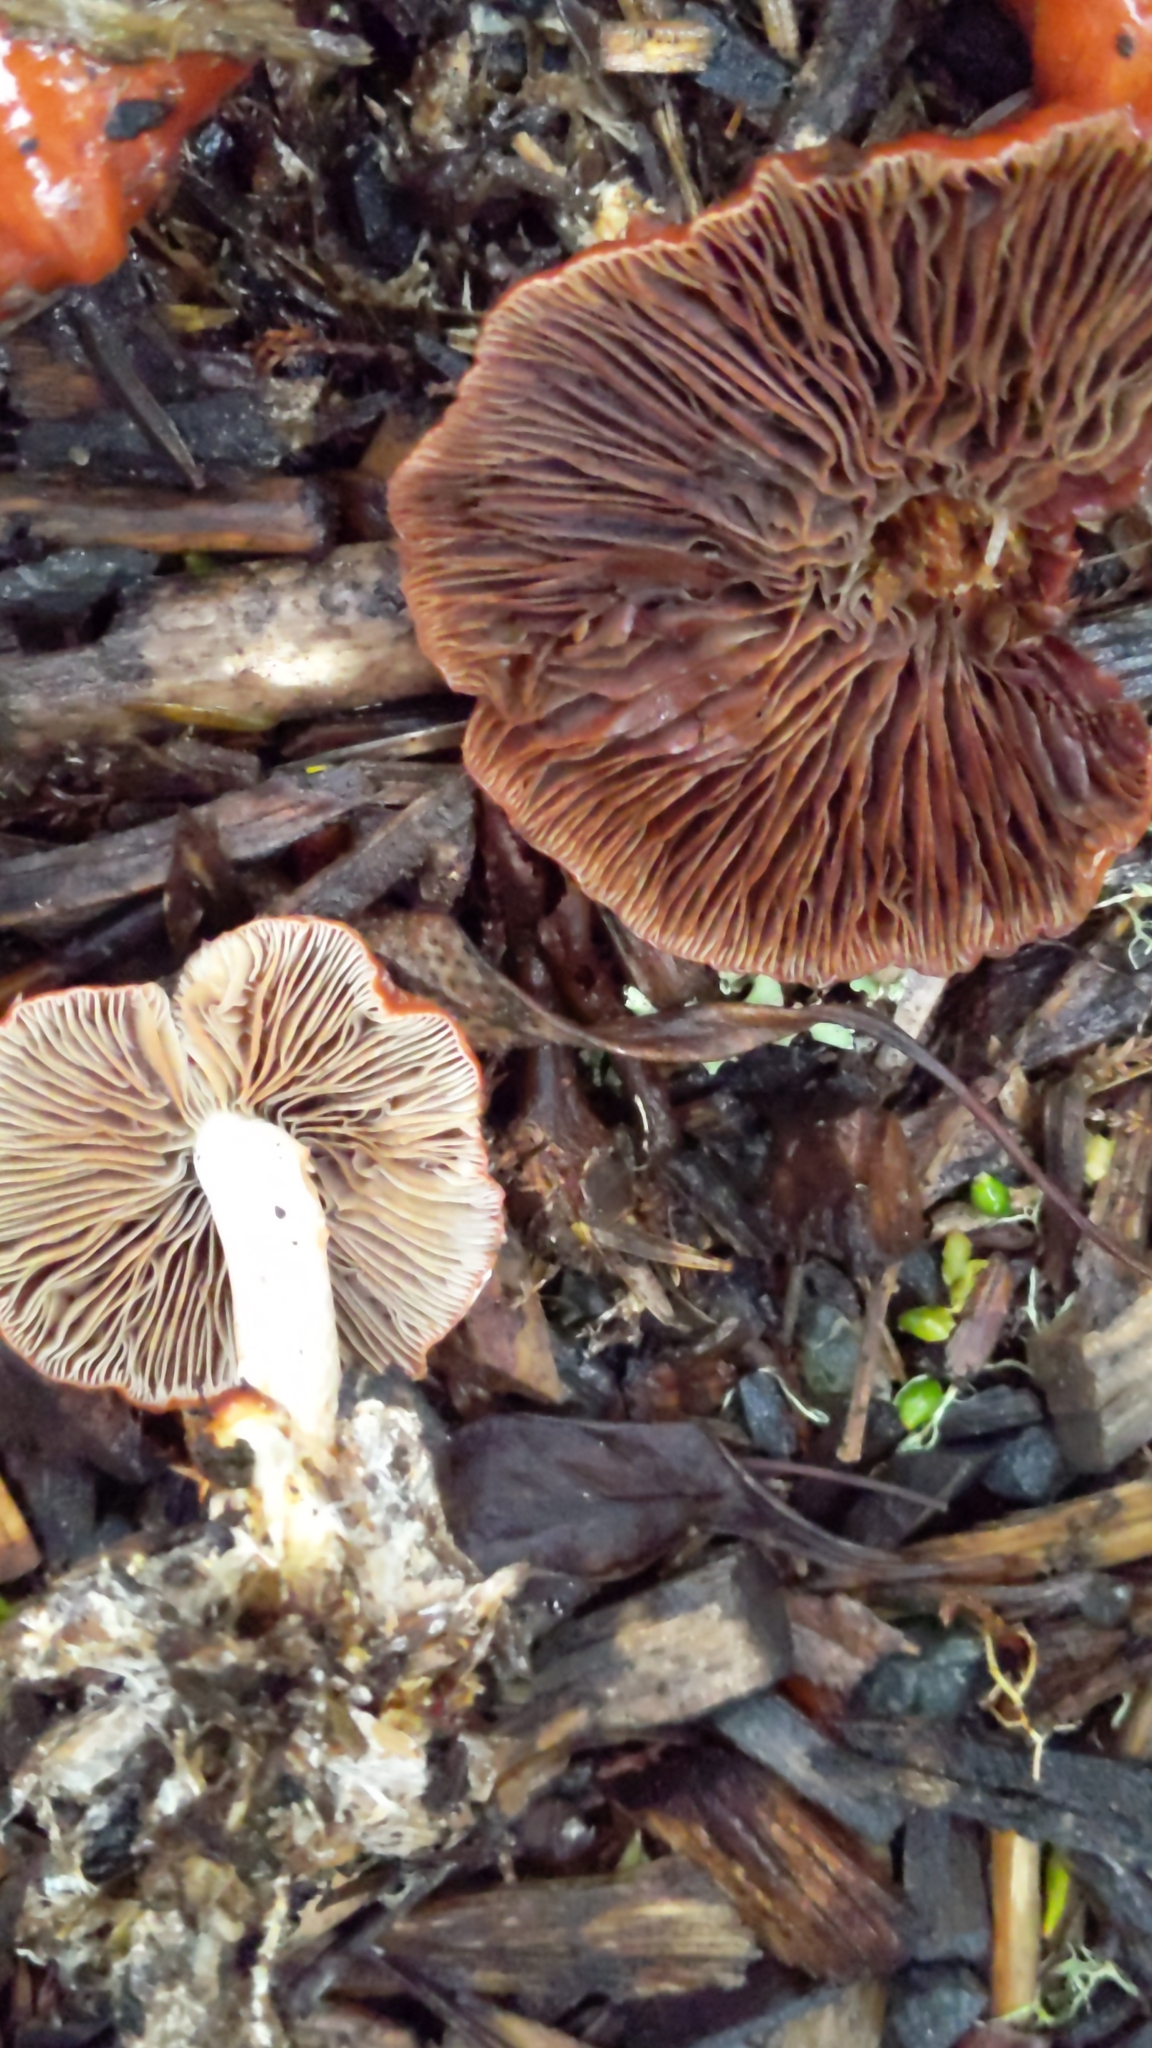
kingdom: Fungi
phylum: Basidiomycota
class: Agaricomycetes
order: Agaricales
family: Strophariaceae
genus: Leratiomyces
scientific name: Leratiomyces ceres
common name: Redlead roundhead
